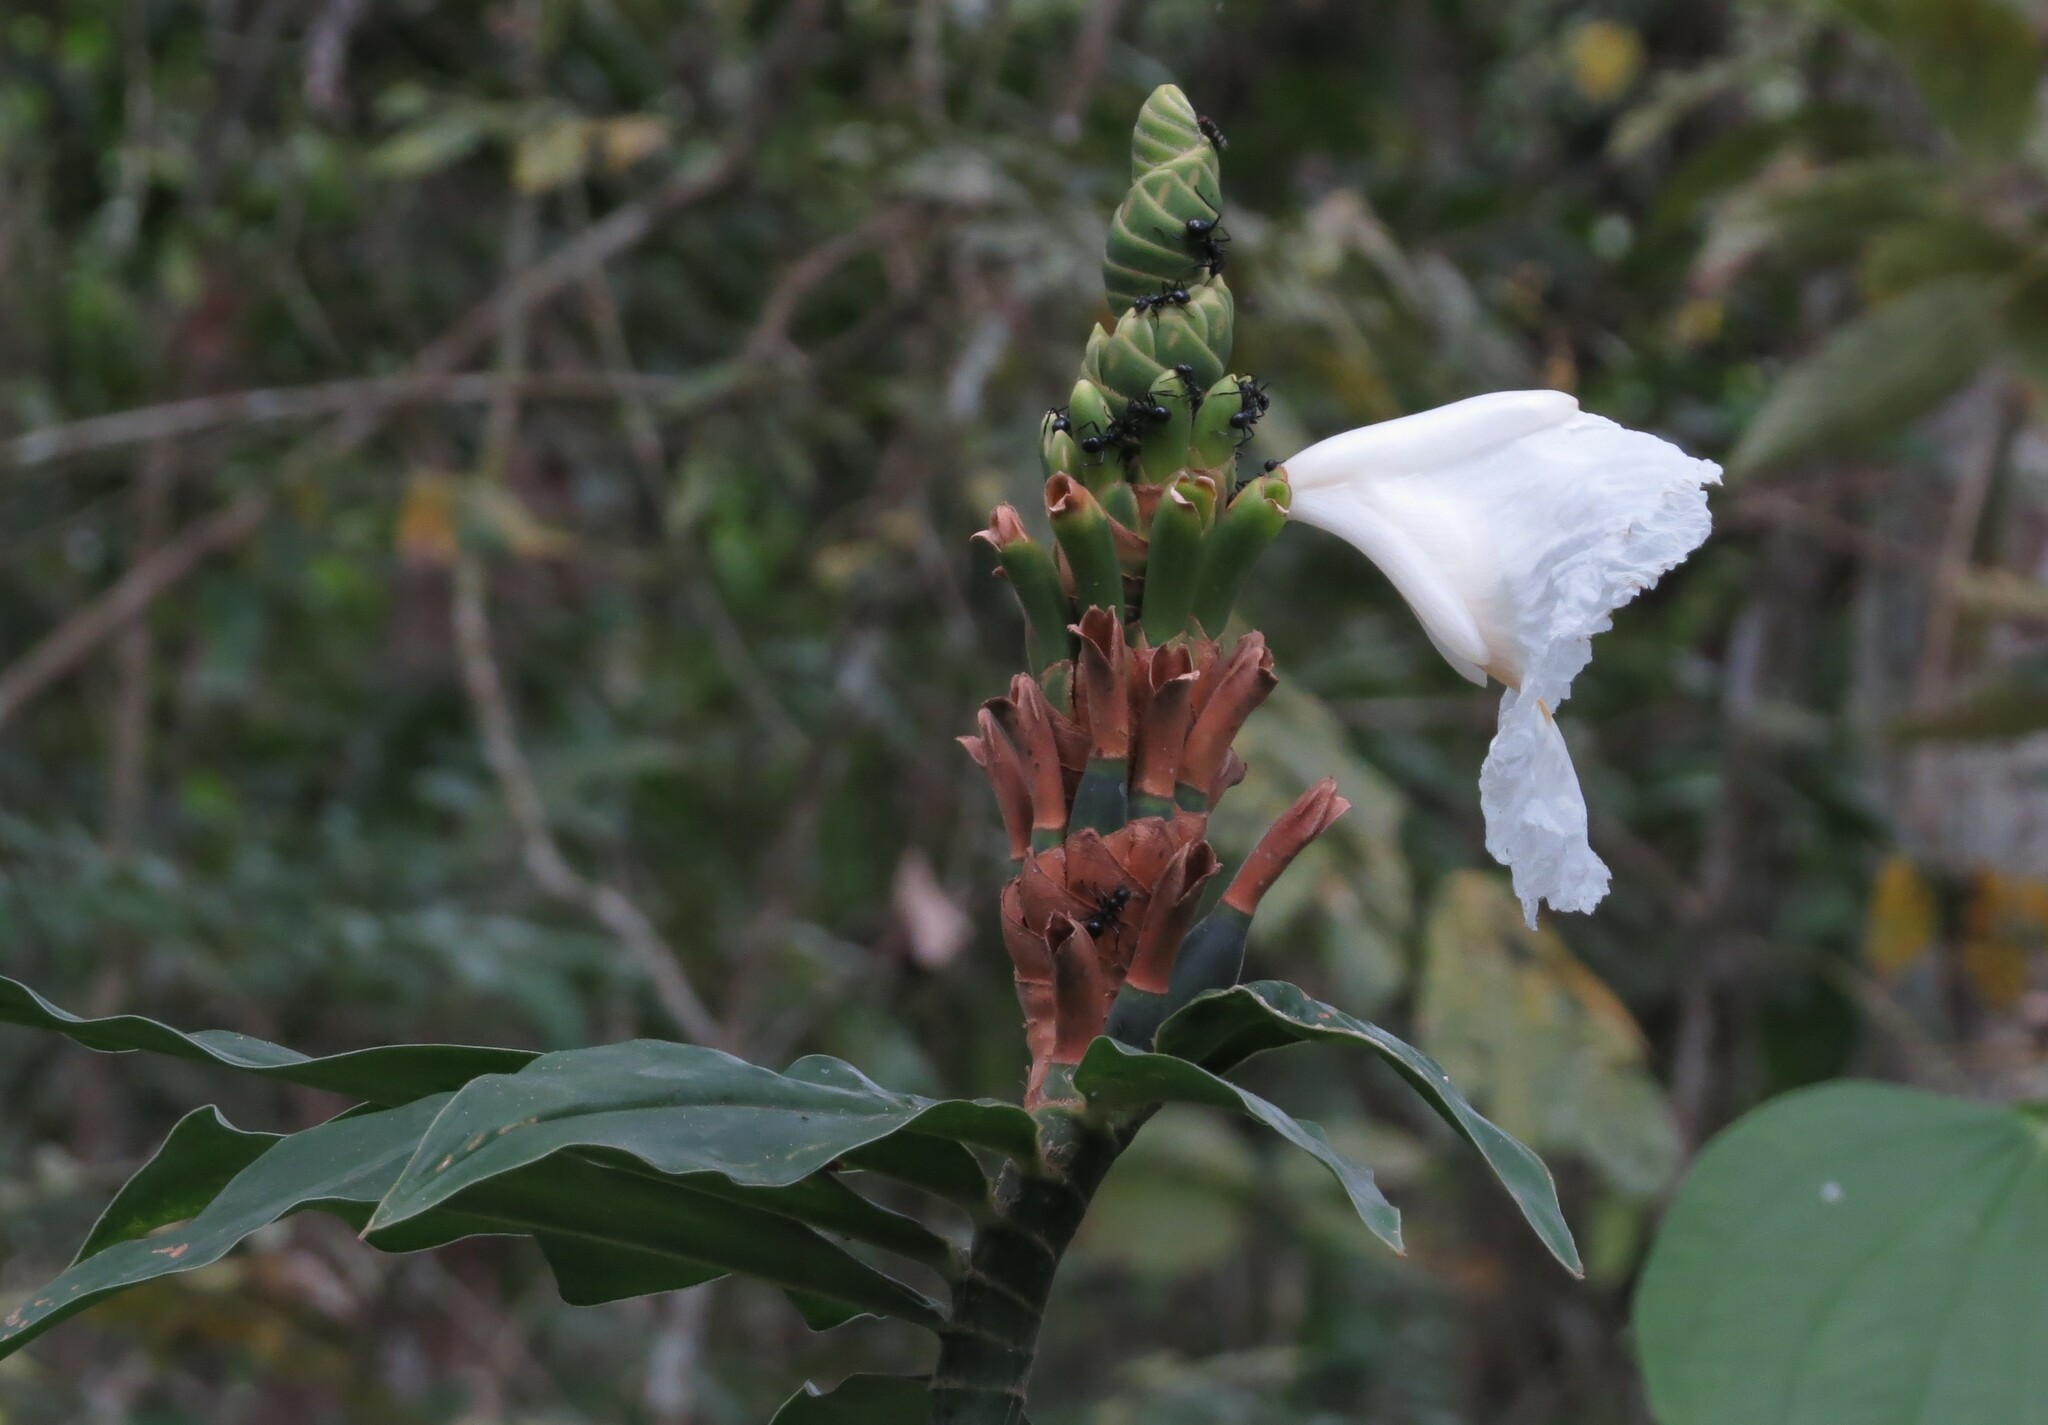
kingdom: Plantae
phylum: Tracheophyta
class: Liliopsida
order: Zingiberales
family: Costaceae
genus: Dimerocostus
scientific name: Dimerocostus strobilaceus
